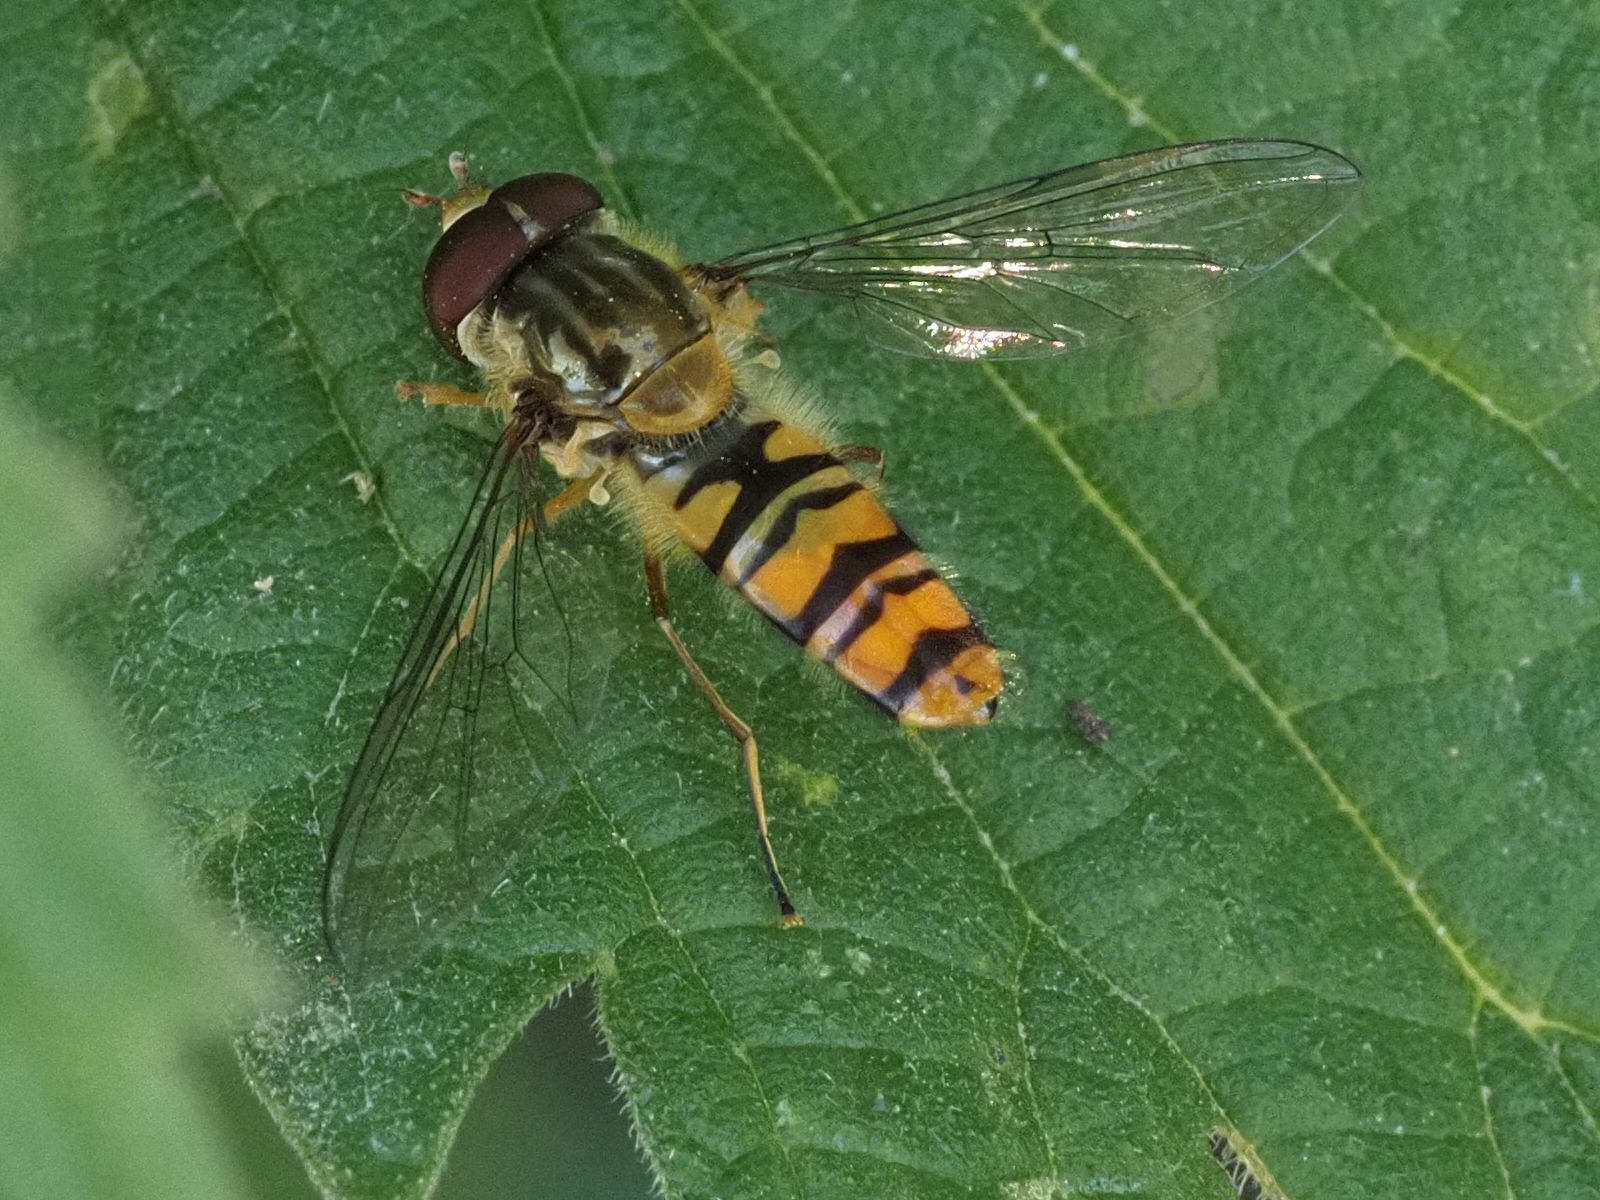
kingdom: Animalia
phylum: Arthropoda
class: Insecta
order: Diptera
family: Syrphidae
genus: Episyrphus
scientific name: Episyrphus balteatus
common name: Marmalade hoverfly
